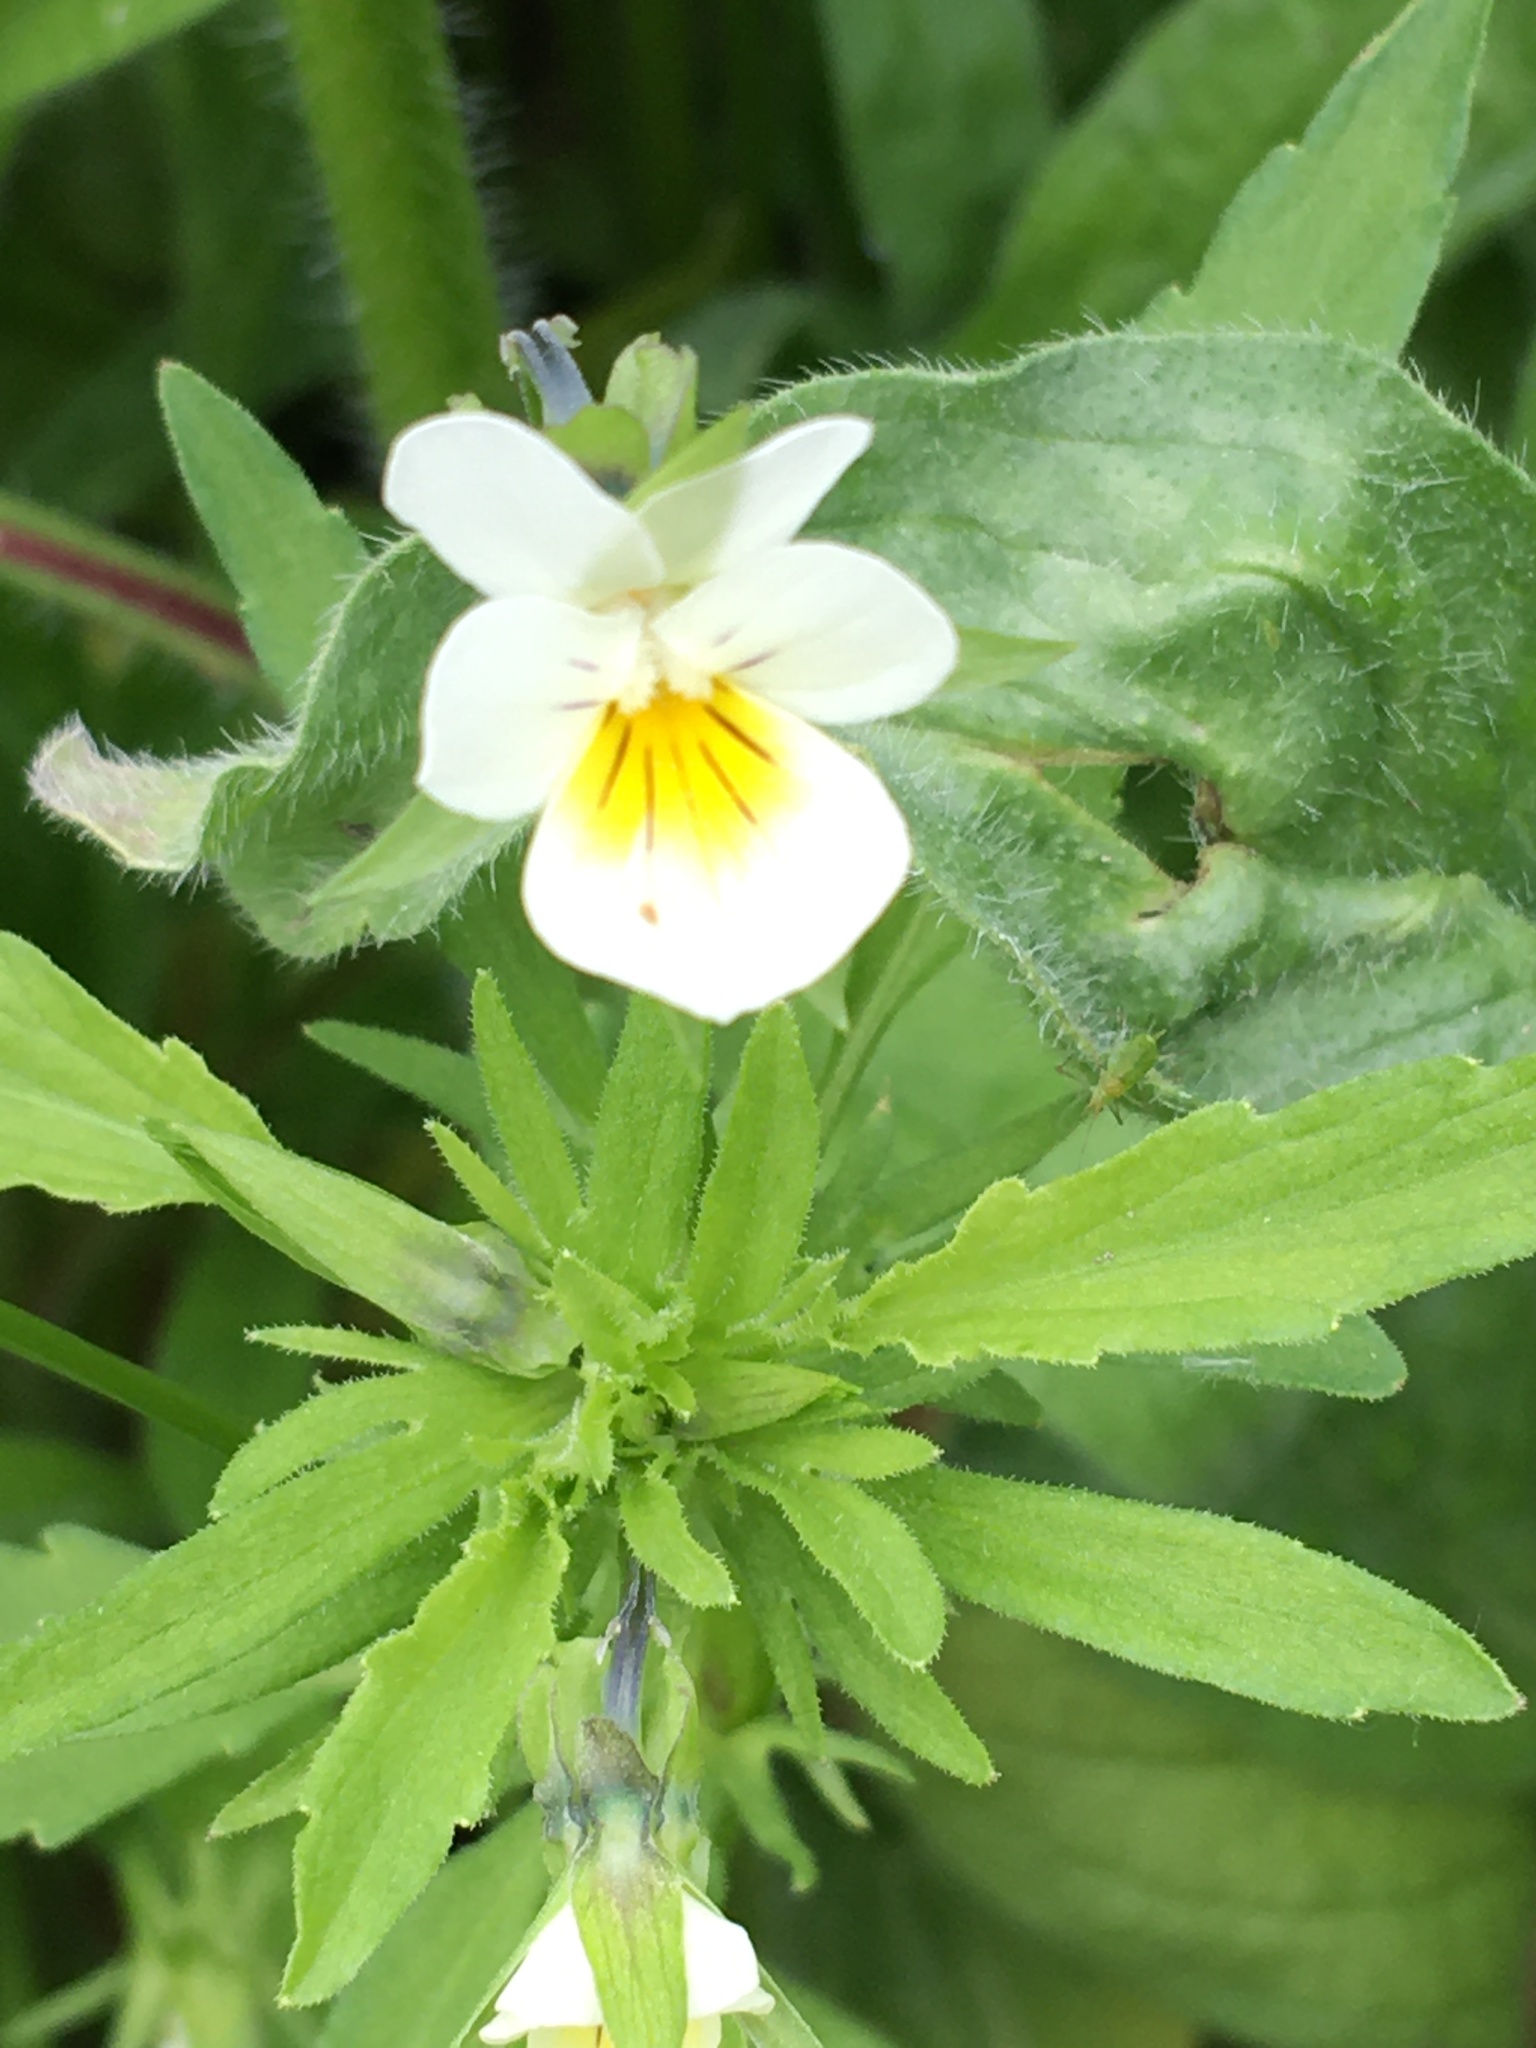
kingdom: Plantae
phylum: Tracheophyta
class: Magnoliopsida
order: Malpighiales
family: Violaceae
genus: Viola
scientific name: Viola arvensis
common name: Field pansy
